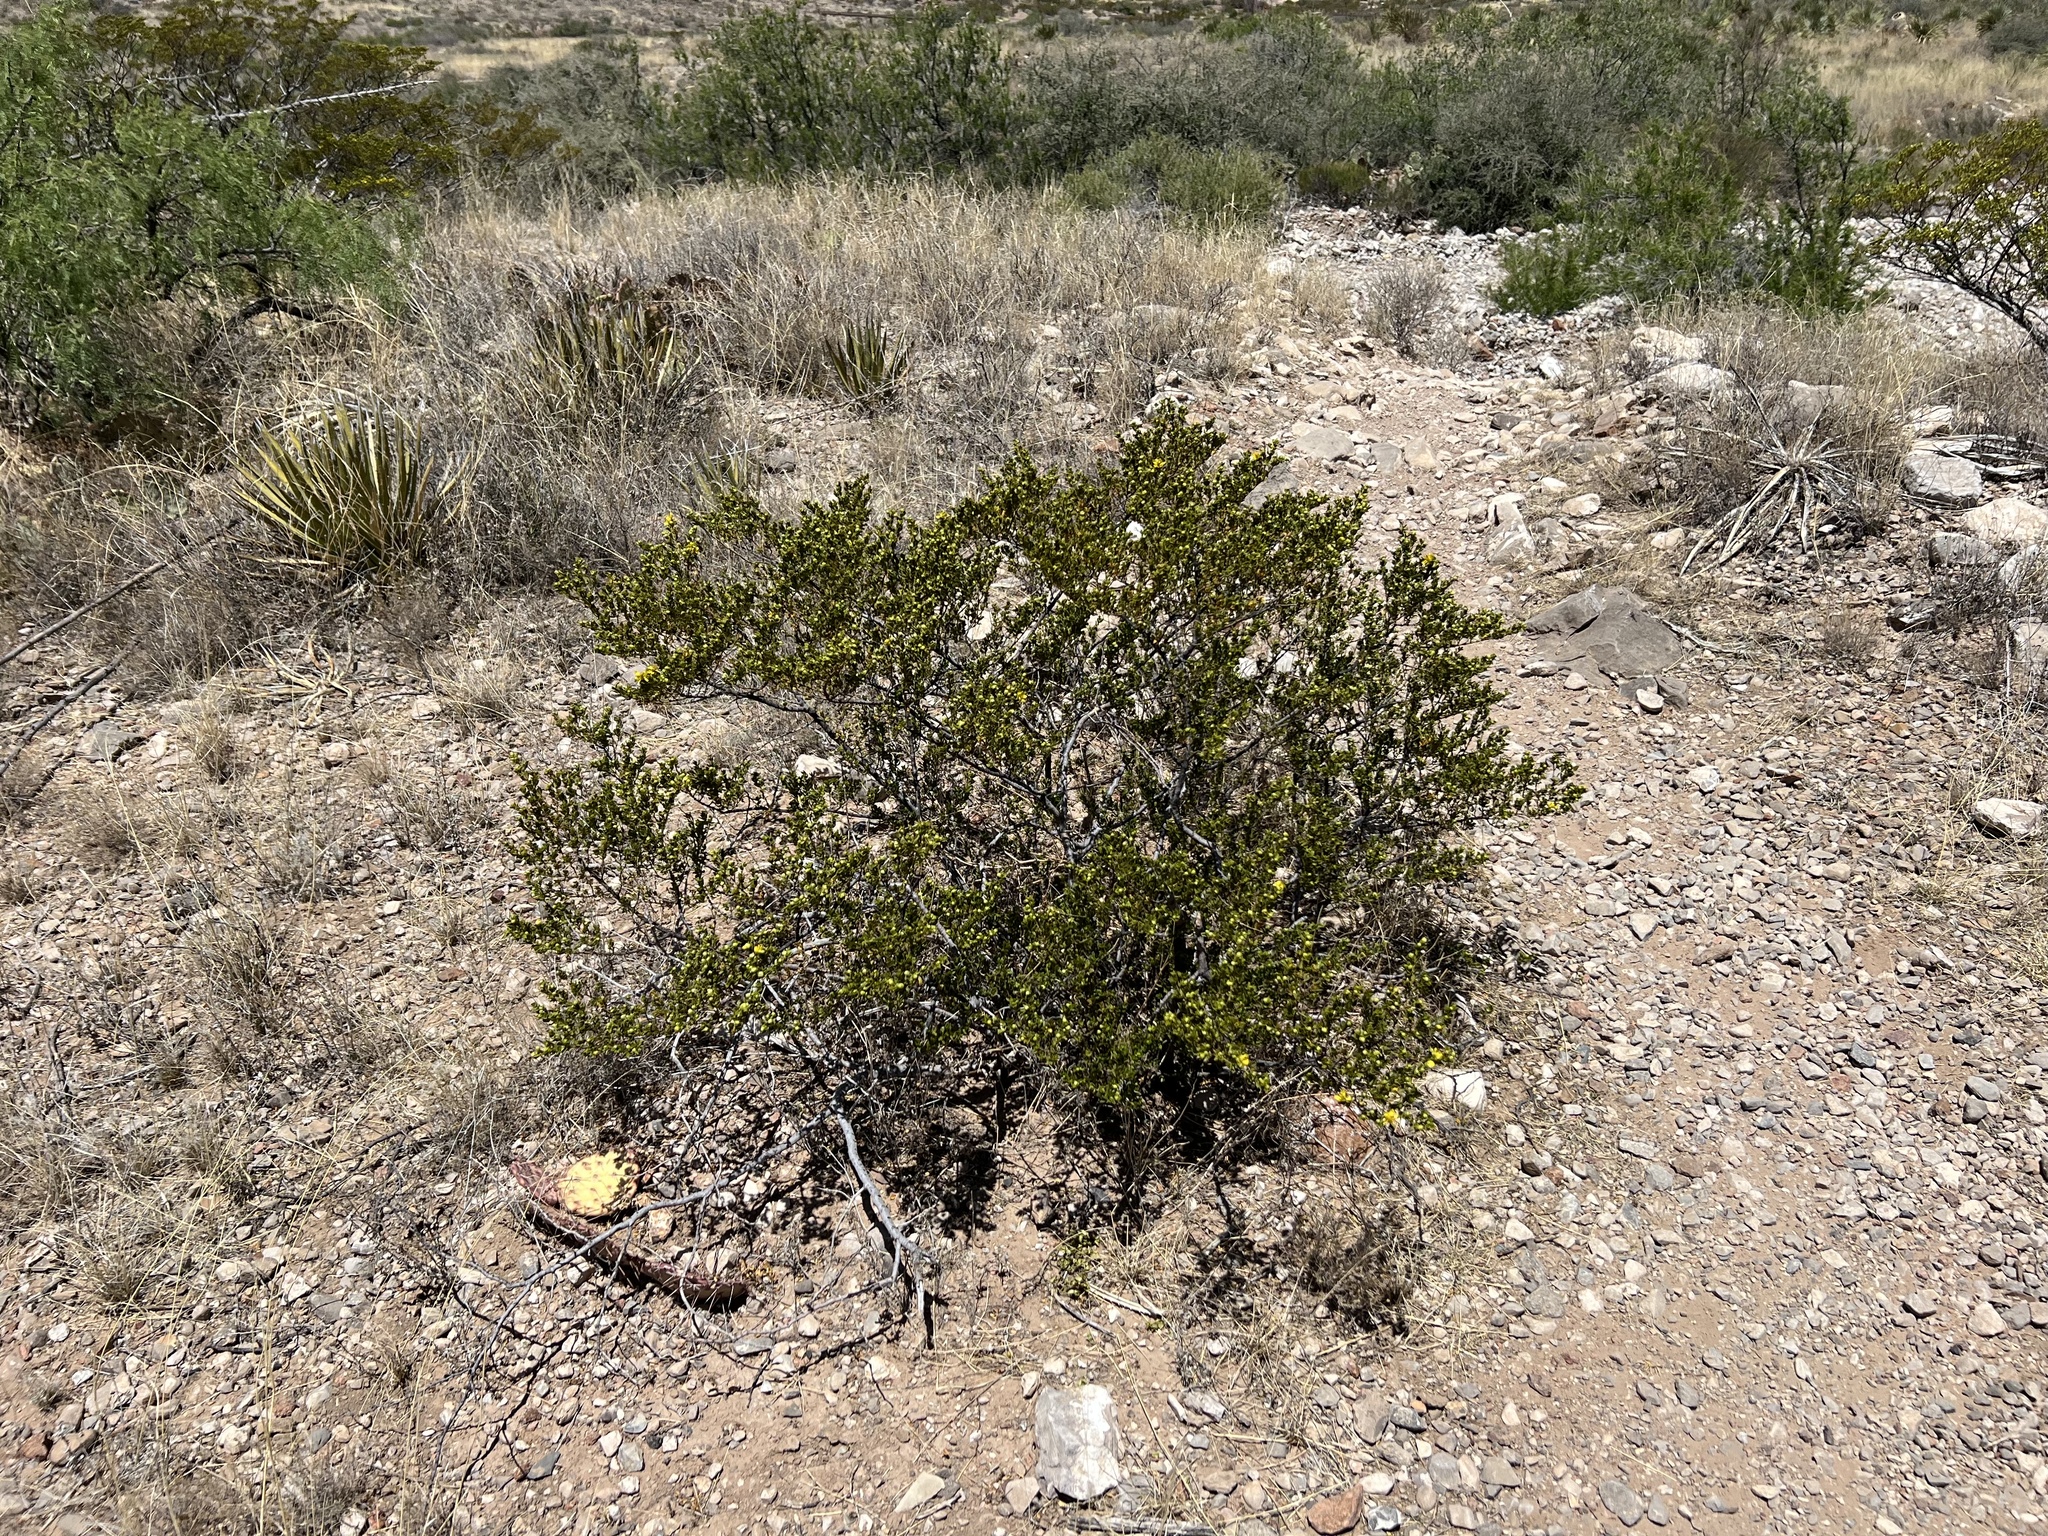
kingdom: Plantae
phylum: Tracheophyta
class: Magnoliopsida
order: Zygophyllales
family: Zygophyllaceae
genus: Larrea
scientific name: Larrea tridentata
